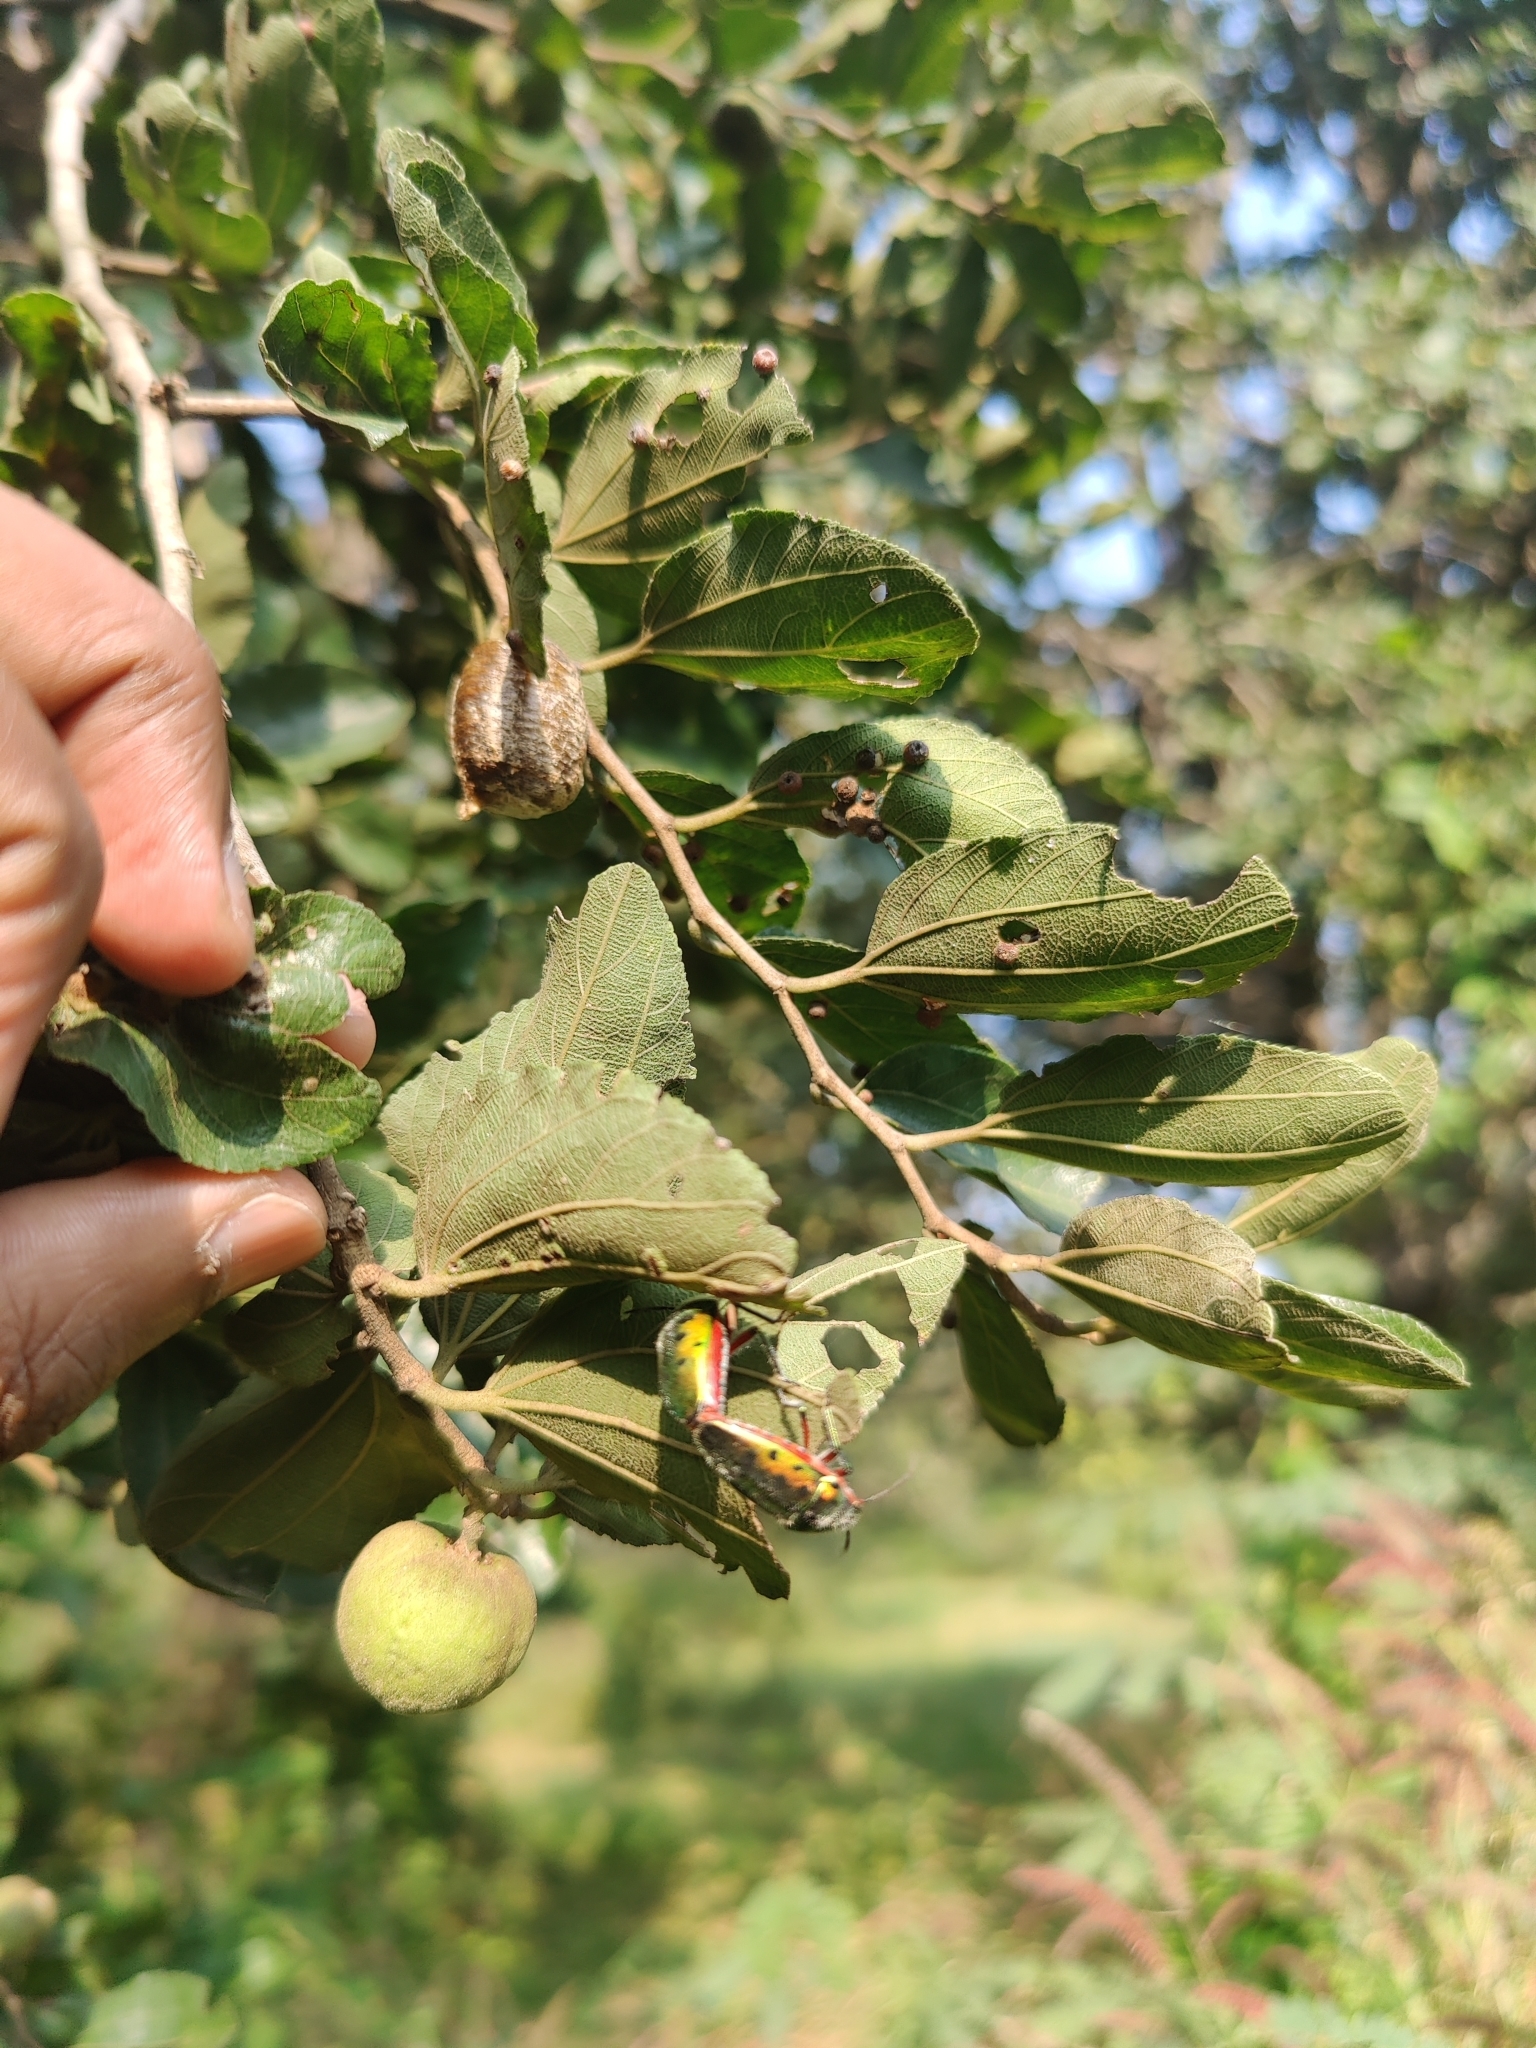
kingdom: Animalia
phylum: Arthropoda
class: Insecta
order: Hemiptera
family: Scutelleridae
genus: Scutellera
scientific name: Scutellera perplexa
